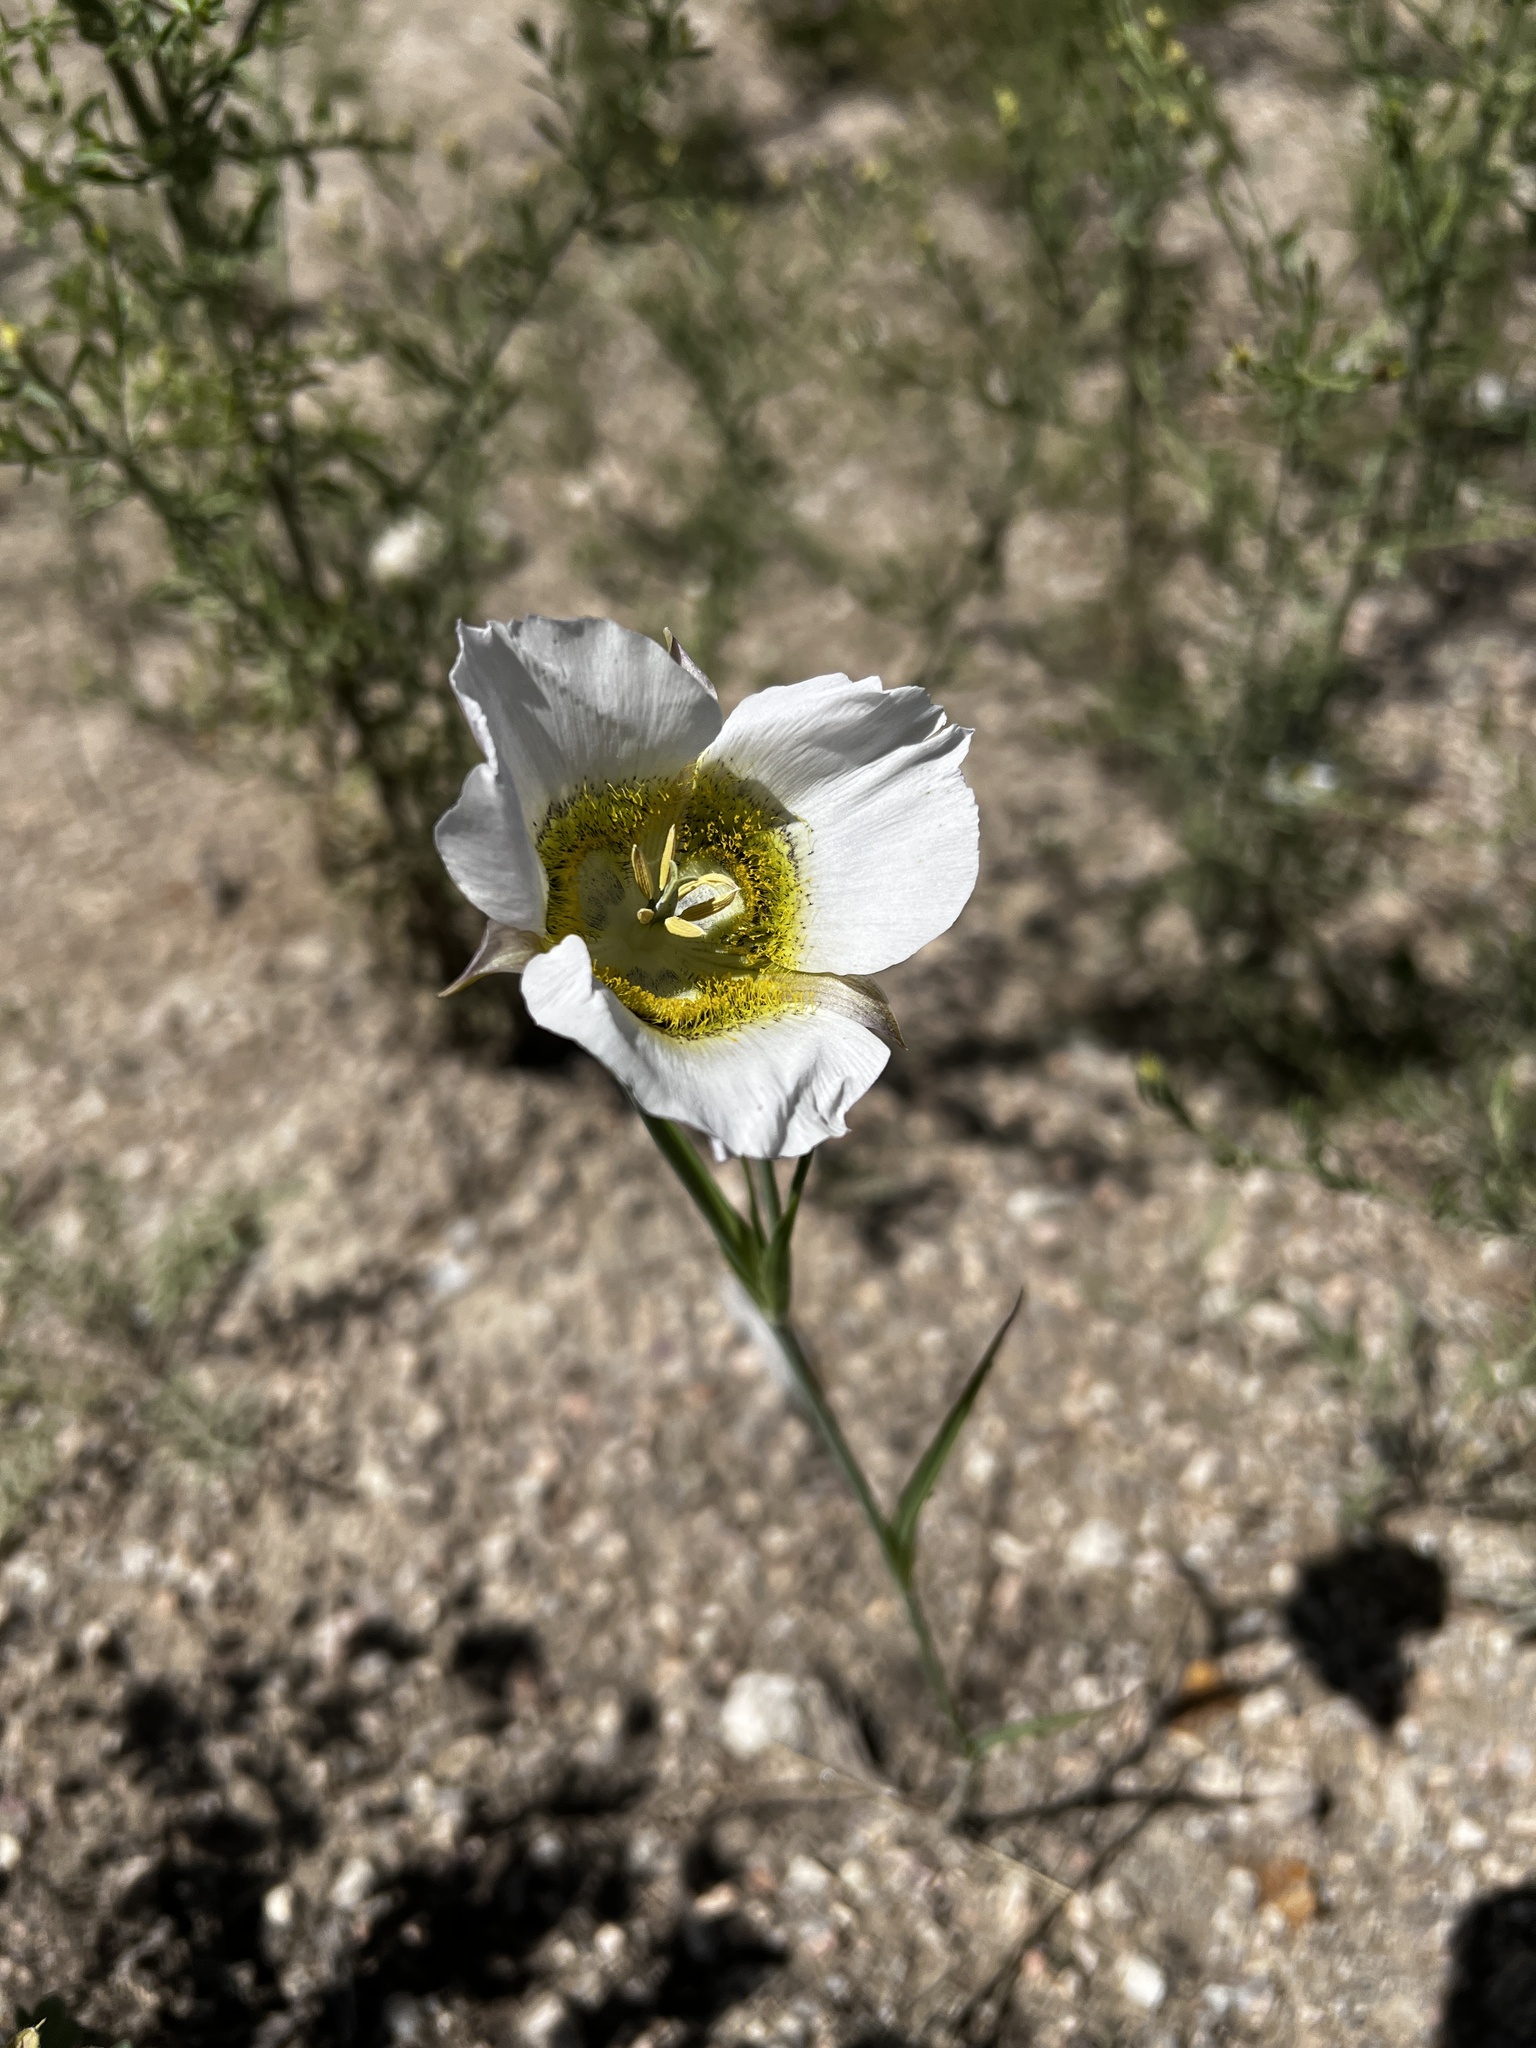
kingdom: Plantae
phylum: Tracheophyta
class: Liliopsida
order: Liliales
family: Liliaceae
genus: Calochortus
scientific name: Calochortus gunnisonii
